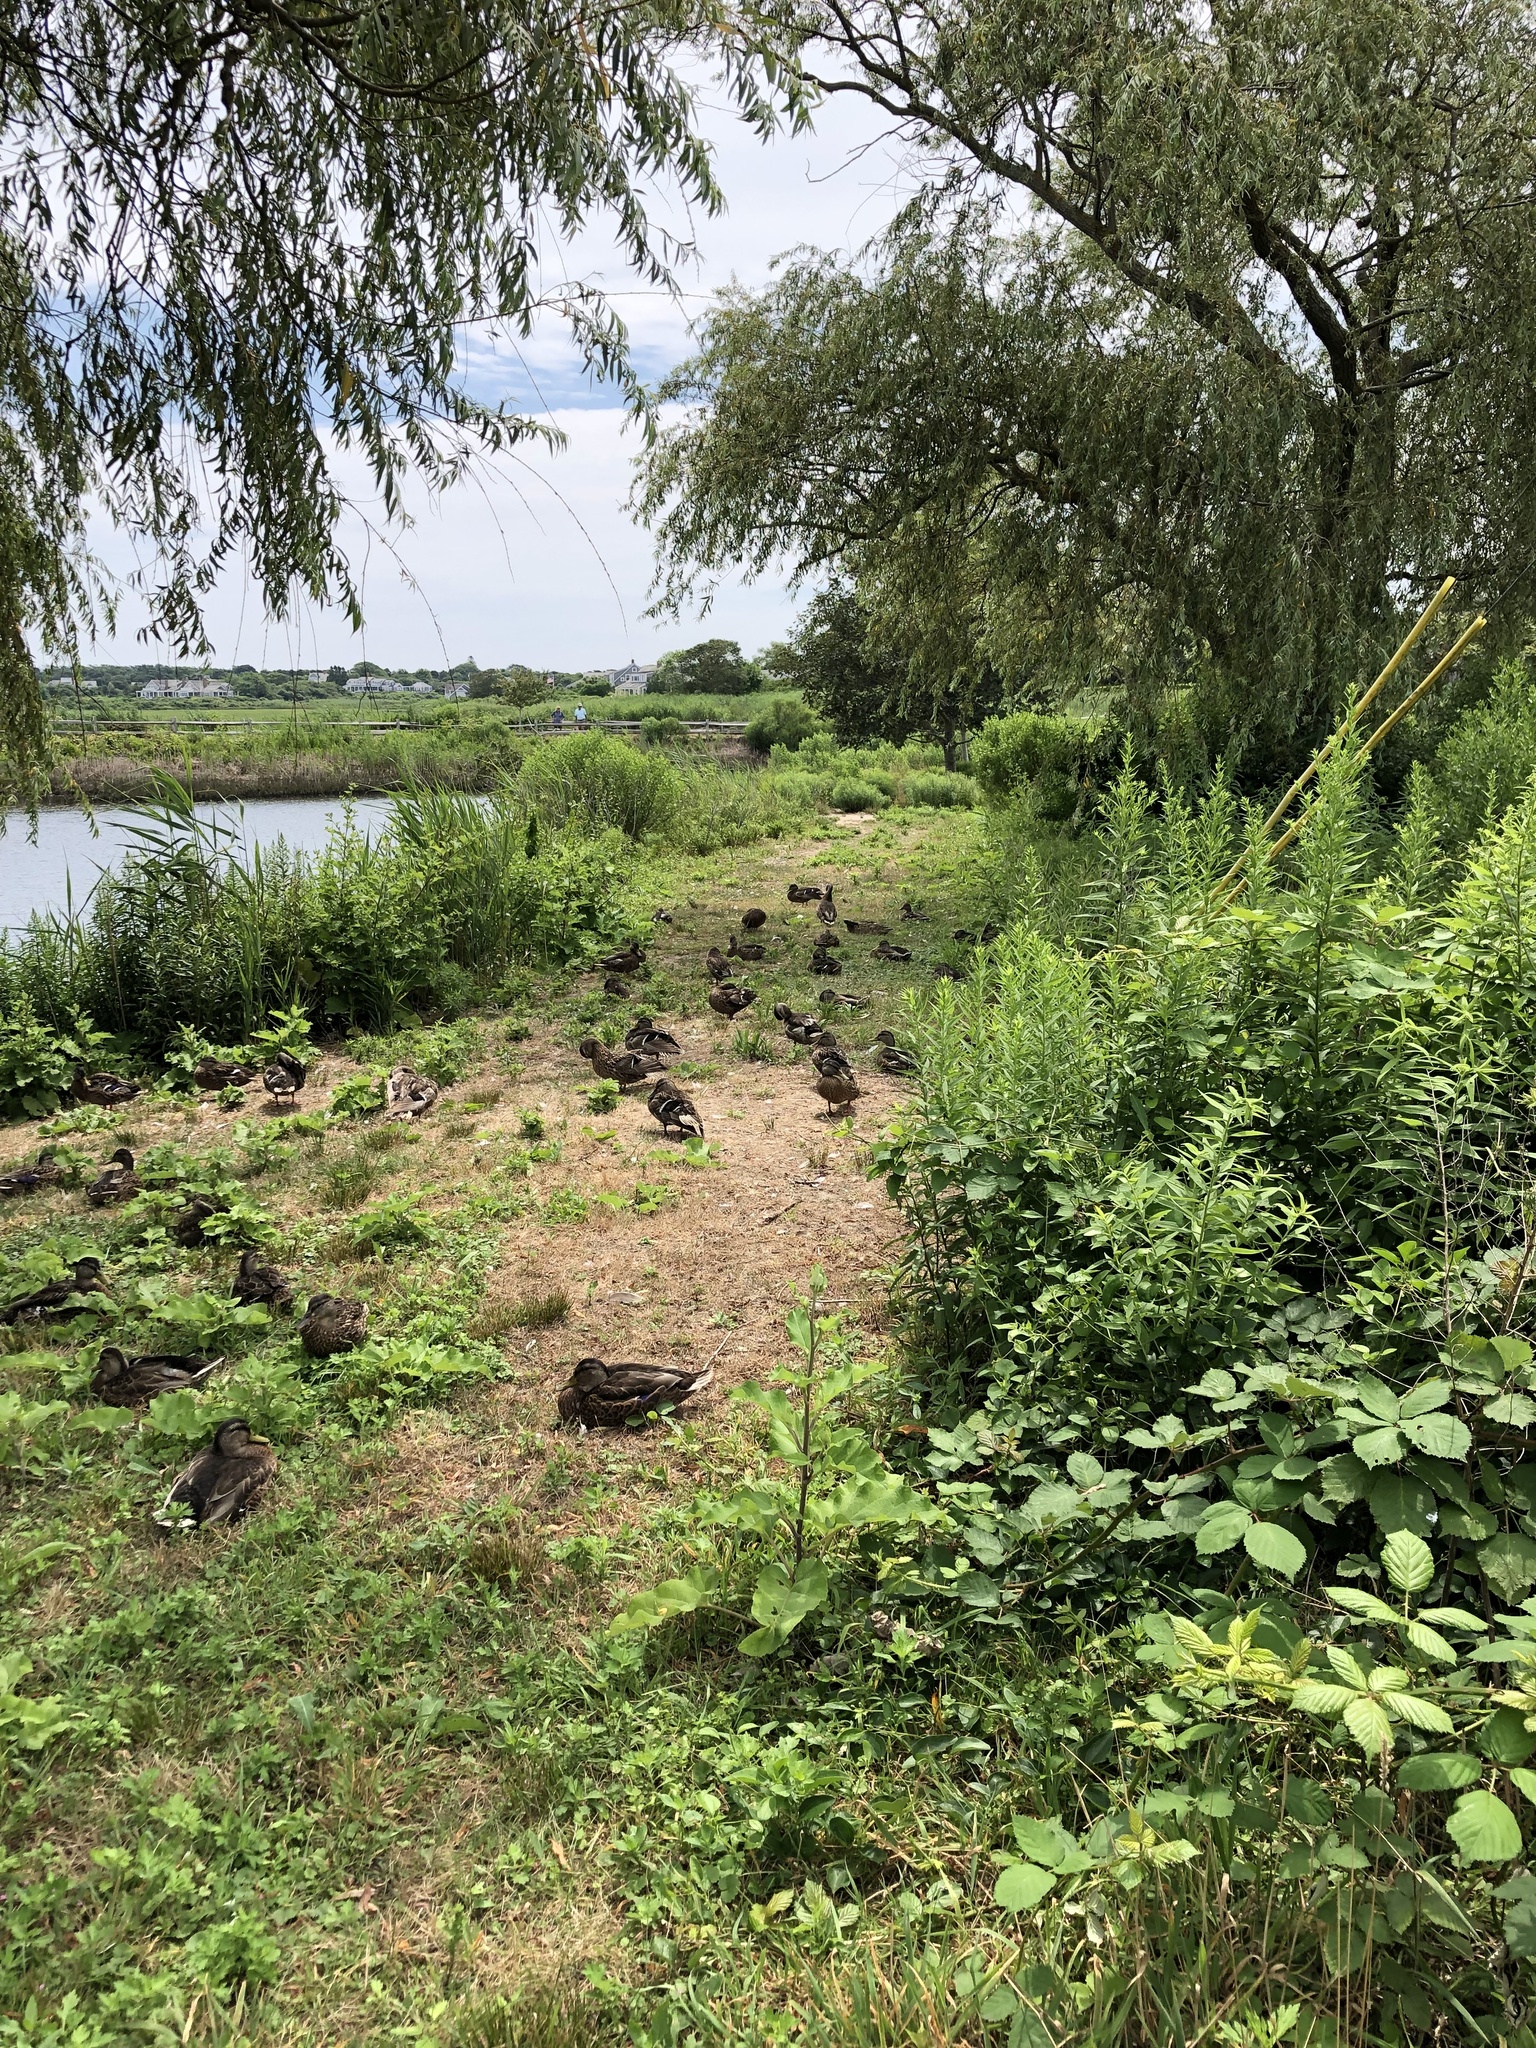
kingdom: Animalia
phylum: Chordata
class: Aves
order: Anseriformes
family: Anatidae
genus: Anas
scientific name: Anas platyrhynchos
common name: Mallard
